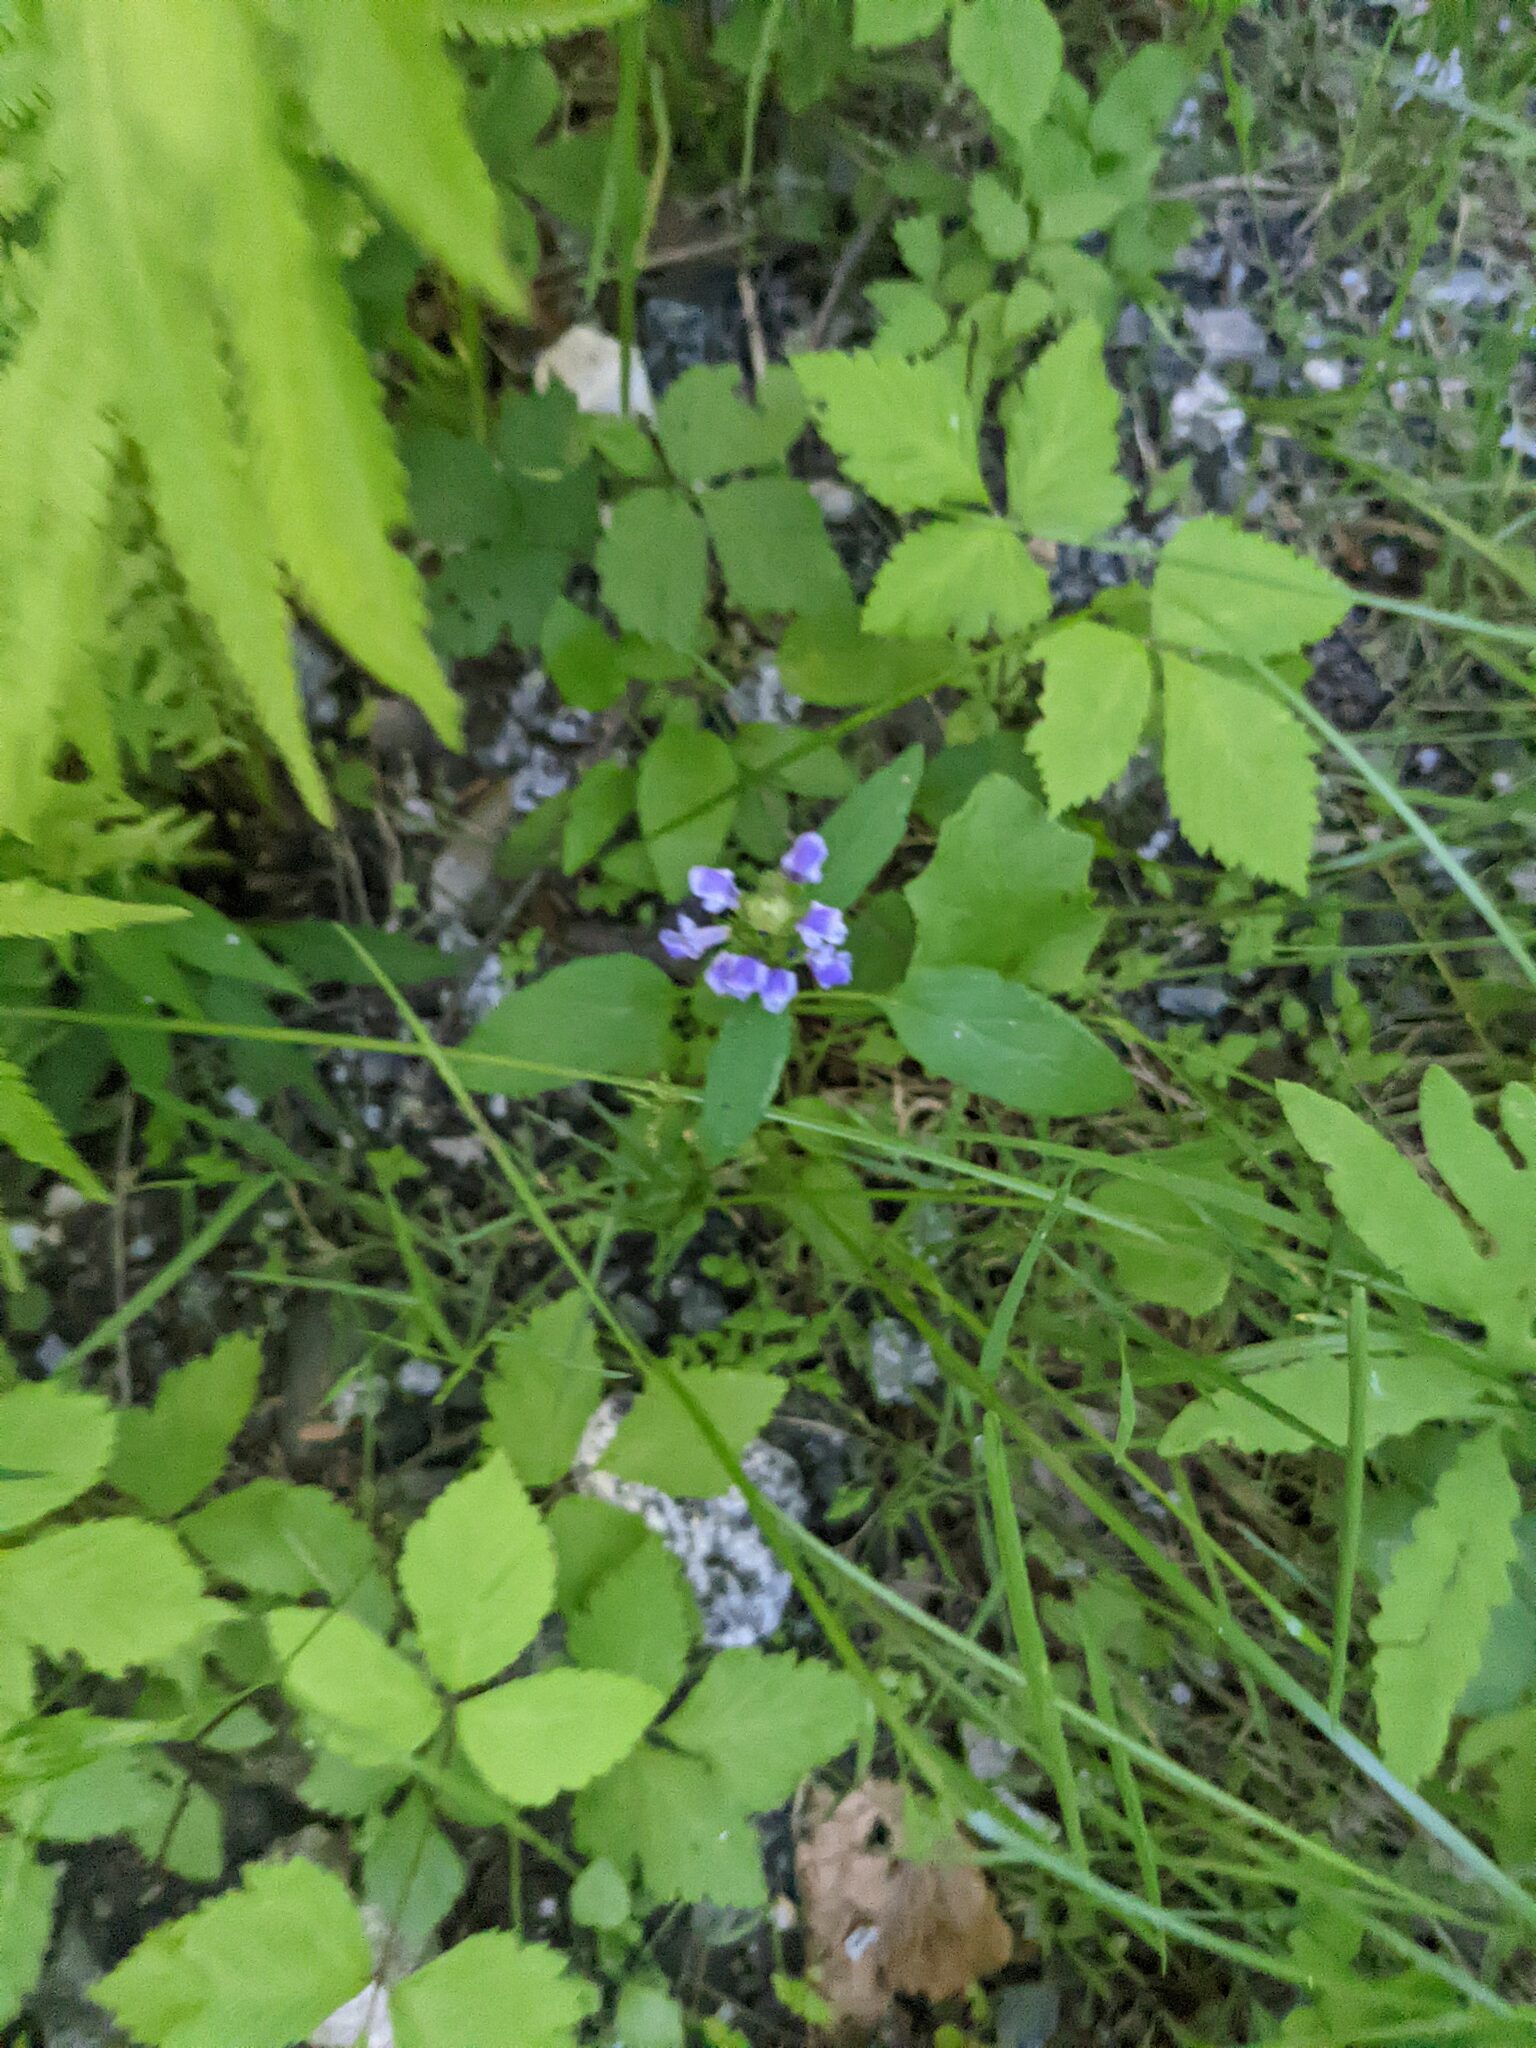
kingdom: Plantae
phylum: Tracheophyta
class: Magnoliopsida
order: Lamiales
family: Lamiaceae
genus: Prunella
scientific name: Prunella vulgaris
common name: Heal-all
